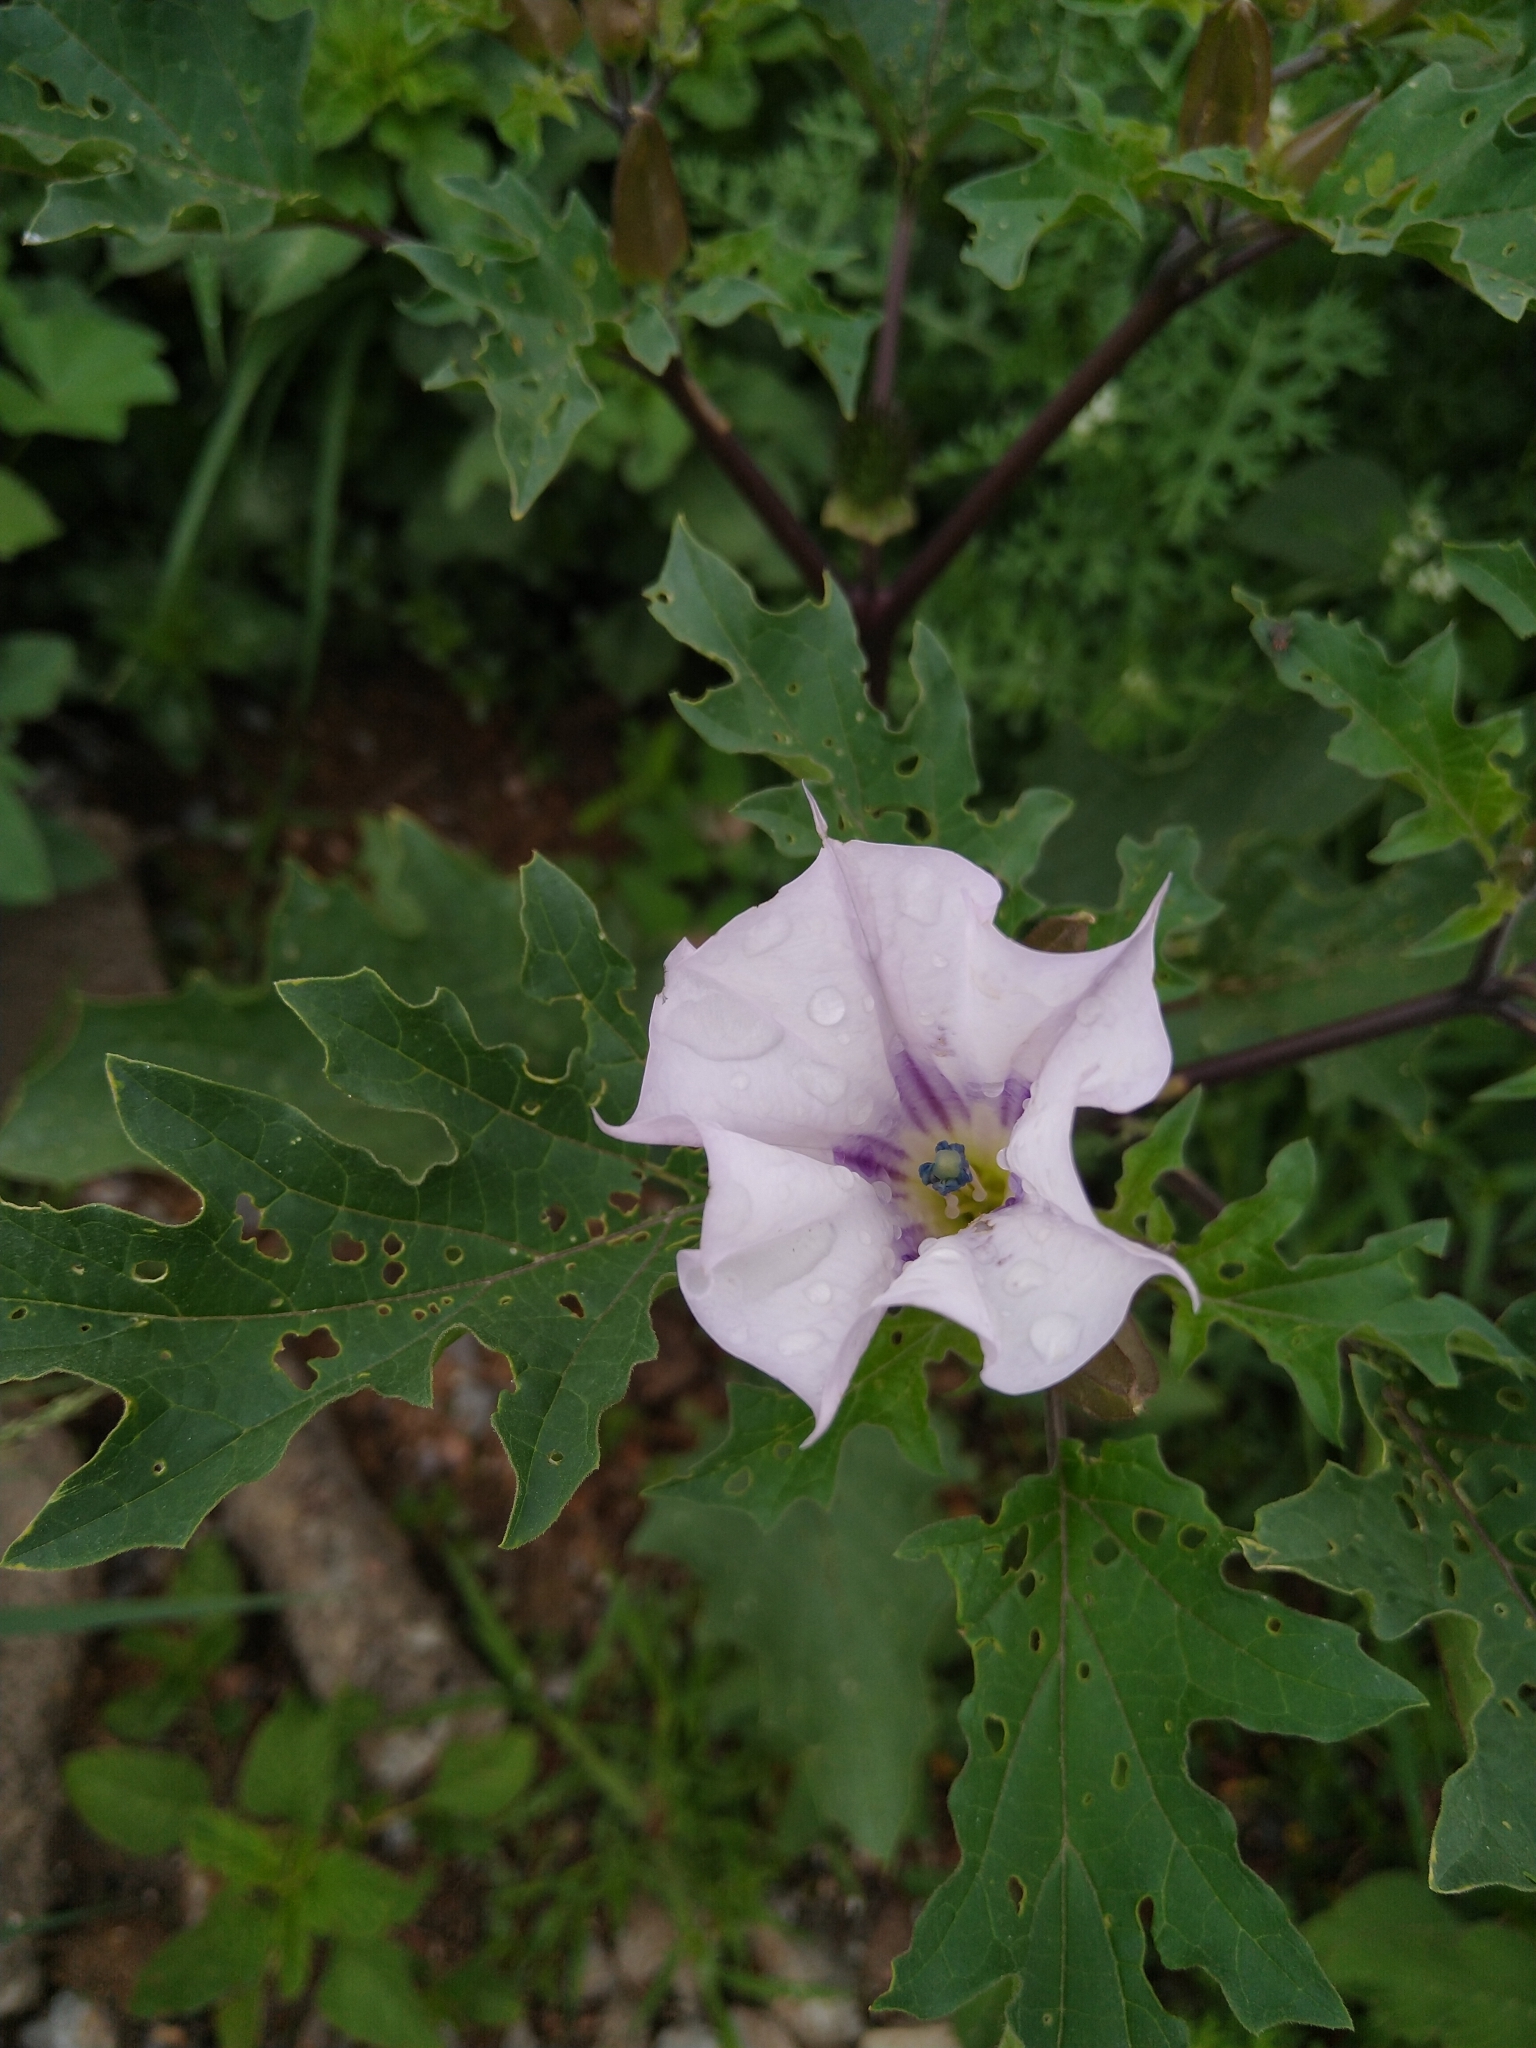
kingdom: Plantae
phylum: Tracheophyta
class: Magnoliopsida
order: Solanales
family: Solanaceae
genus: Datura
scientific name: Datura stramonium
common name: Thorn-apple
